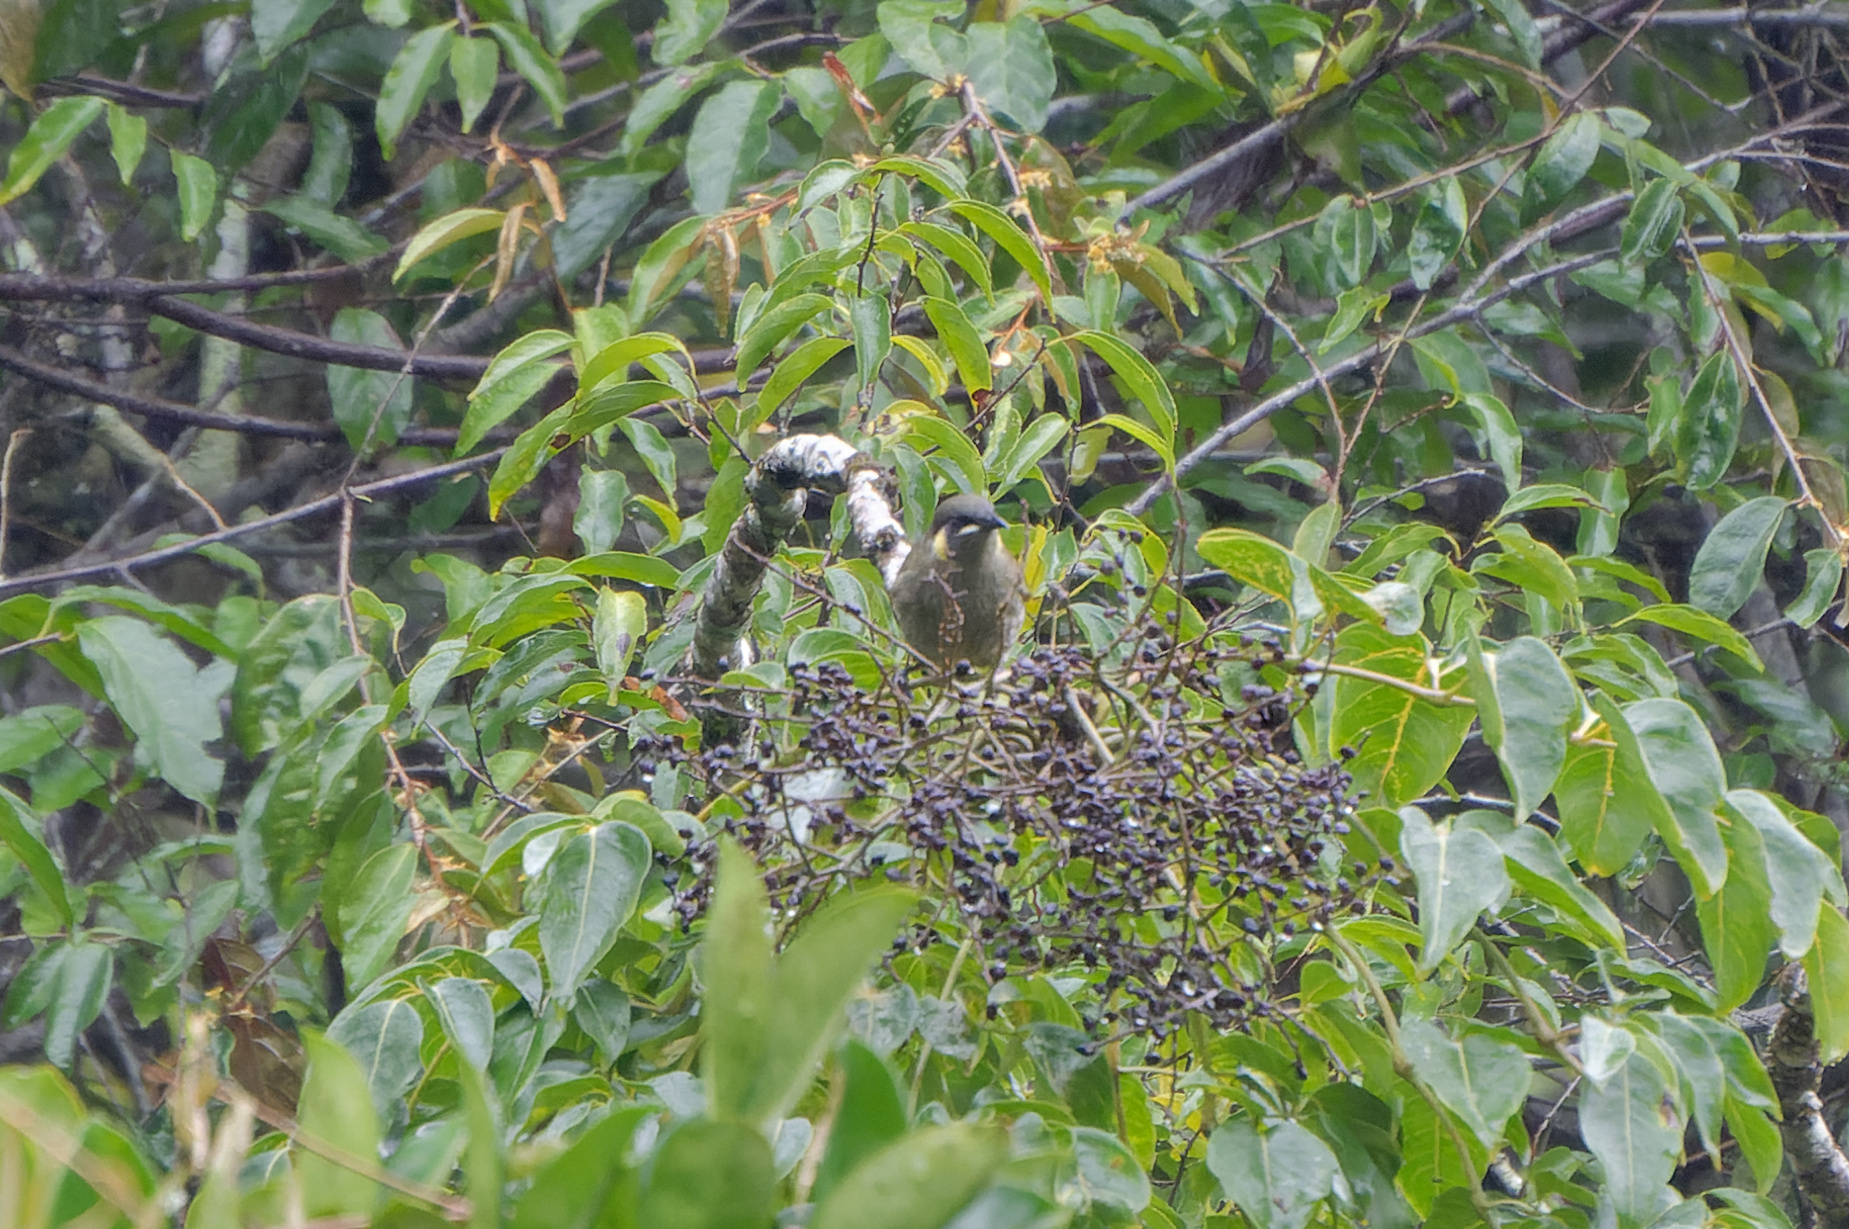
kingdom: Animalia
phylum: Chordata
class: Aves
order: Passeriformes
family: Meliphagidae
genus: Meliphaga
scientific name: Meliphaga lewinii
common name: Lewin's honeyeater
